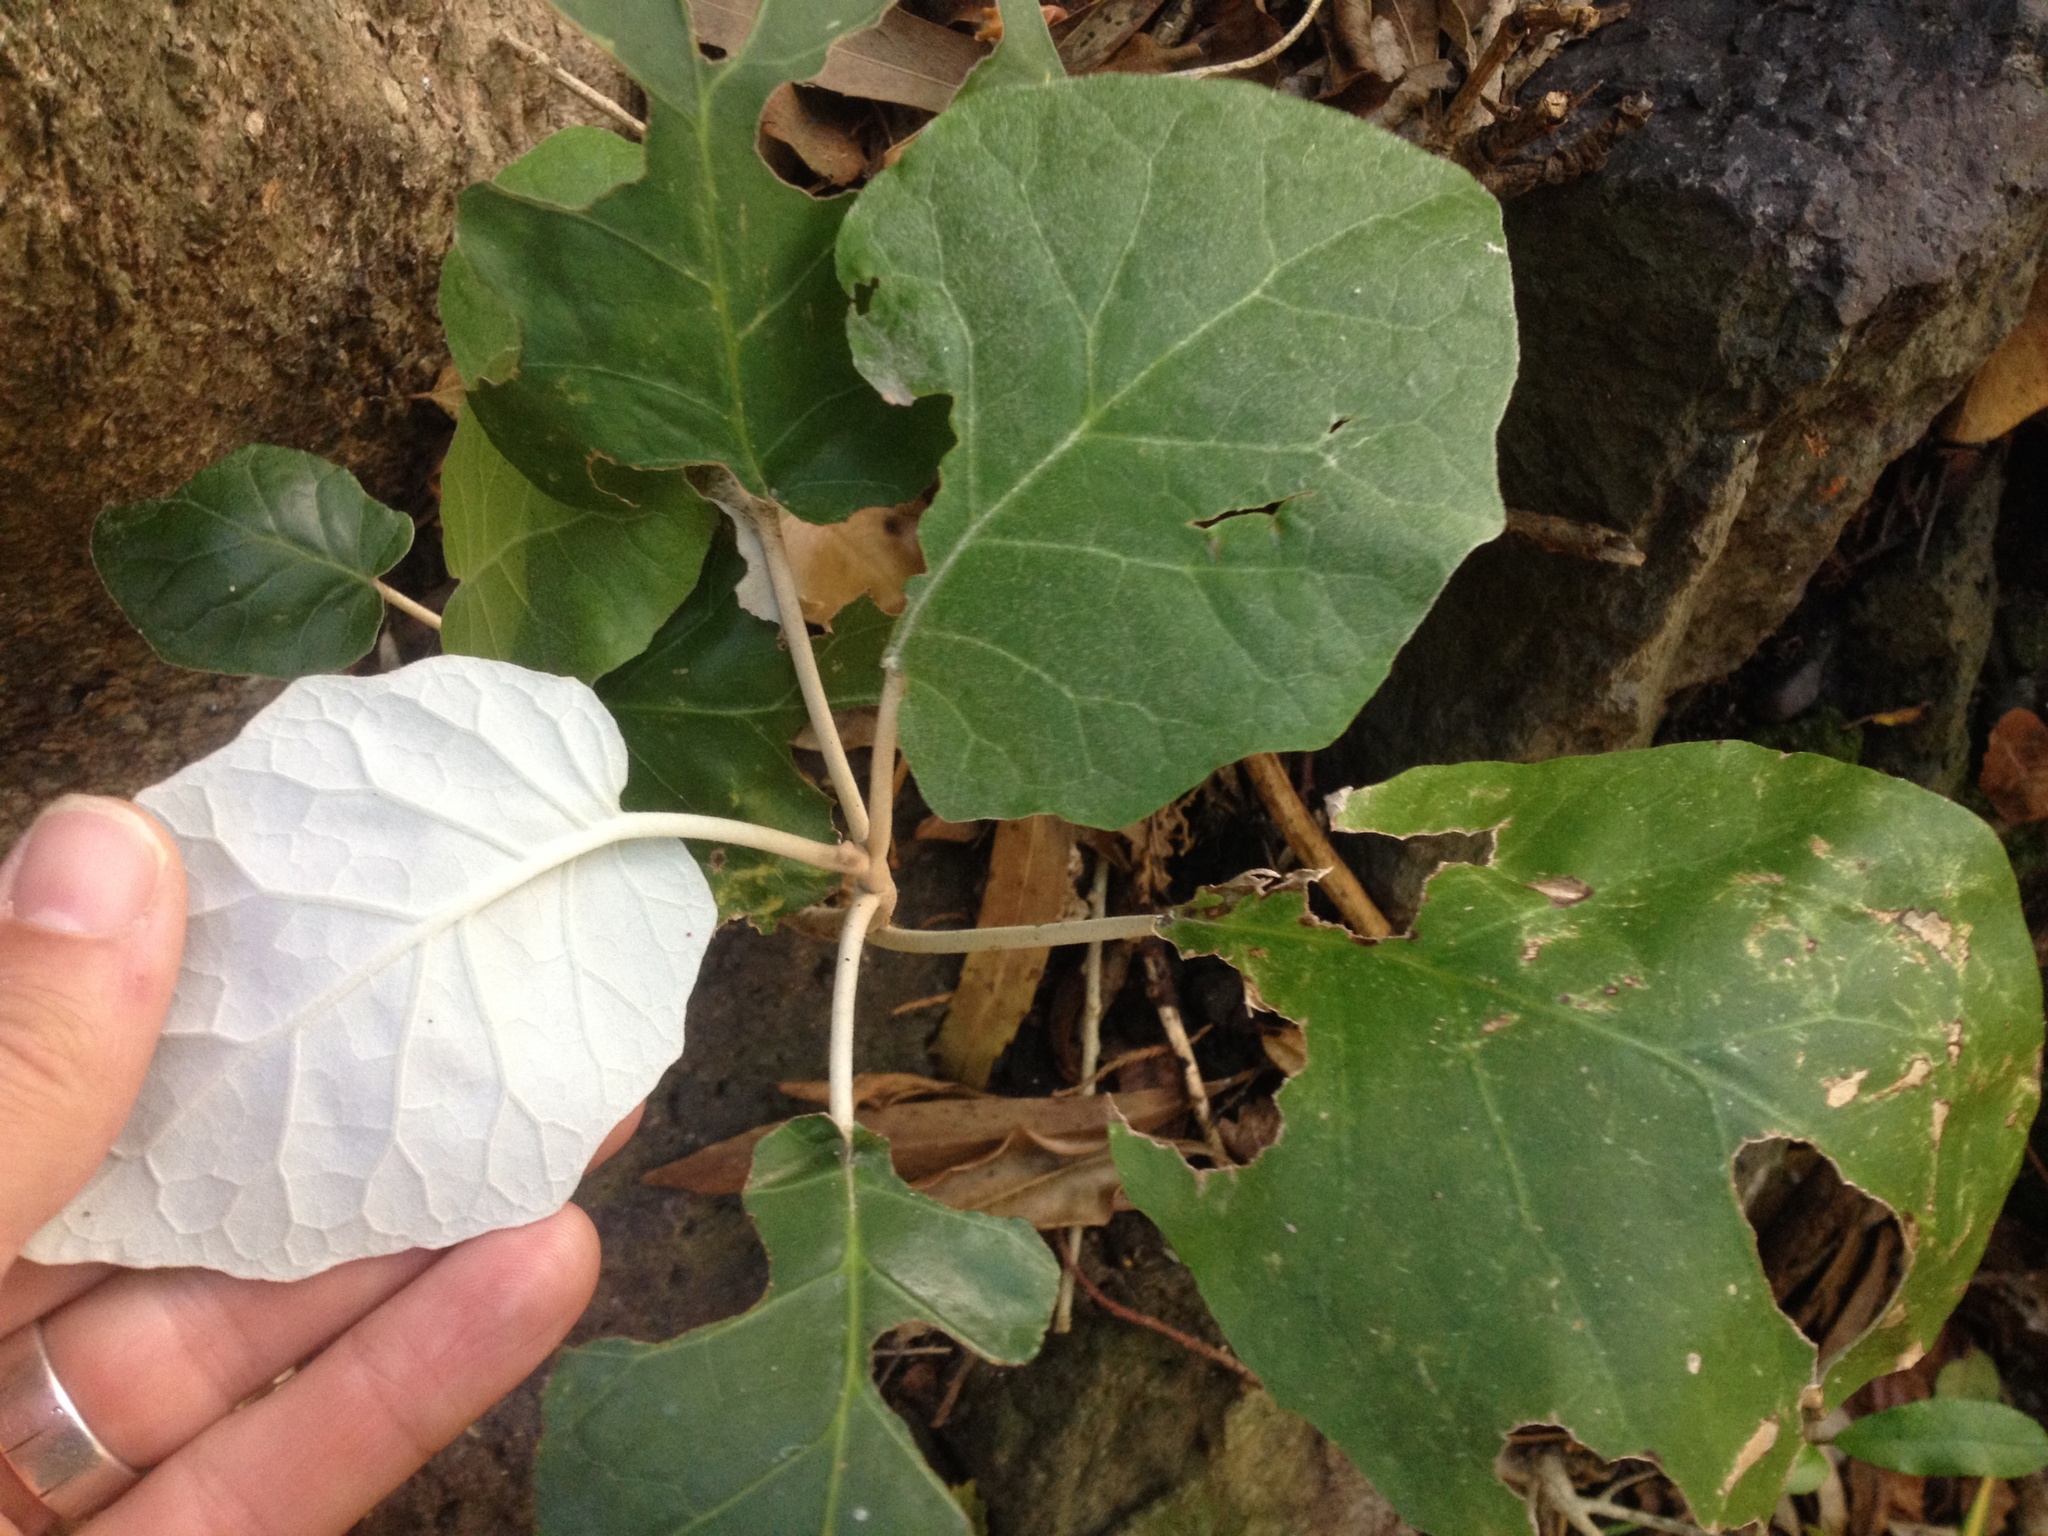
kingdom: Plantae
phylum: Tracheophyta
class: Magnoliopsida
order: Asterales
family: Asteraceae
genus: Brachyglottis
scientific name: Brachyglottis repanda
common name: Hedge ragwort
